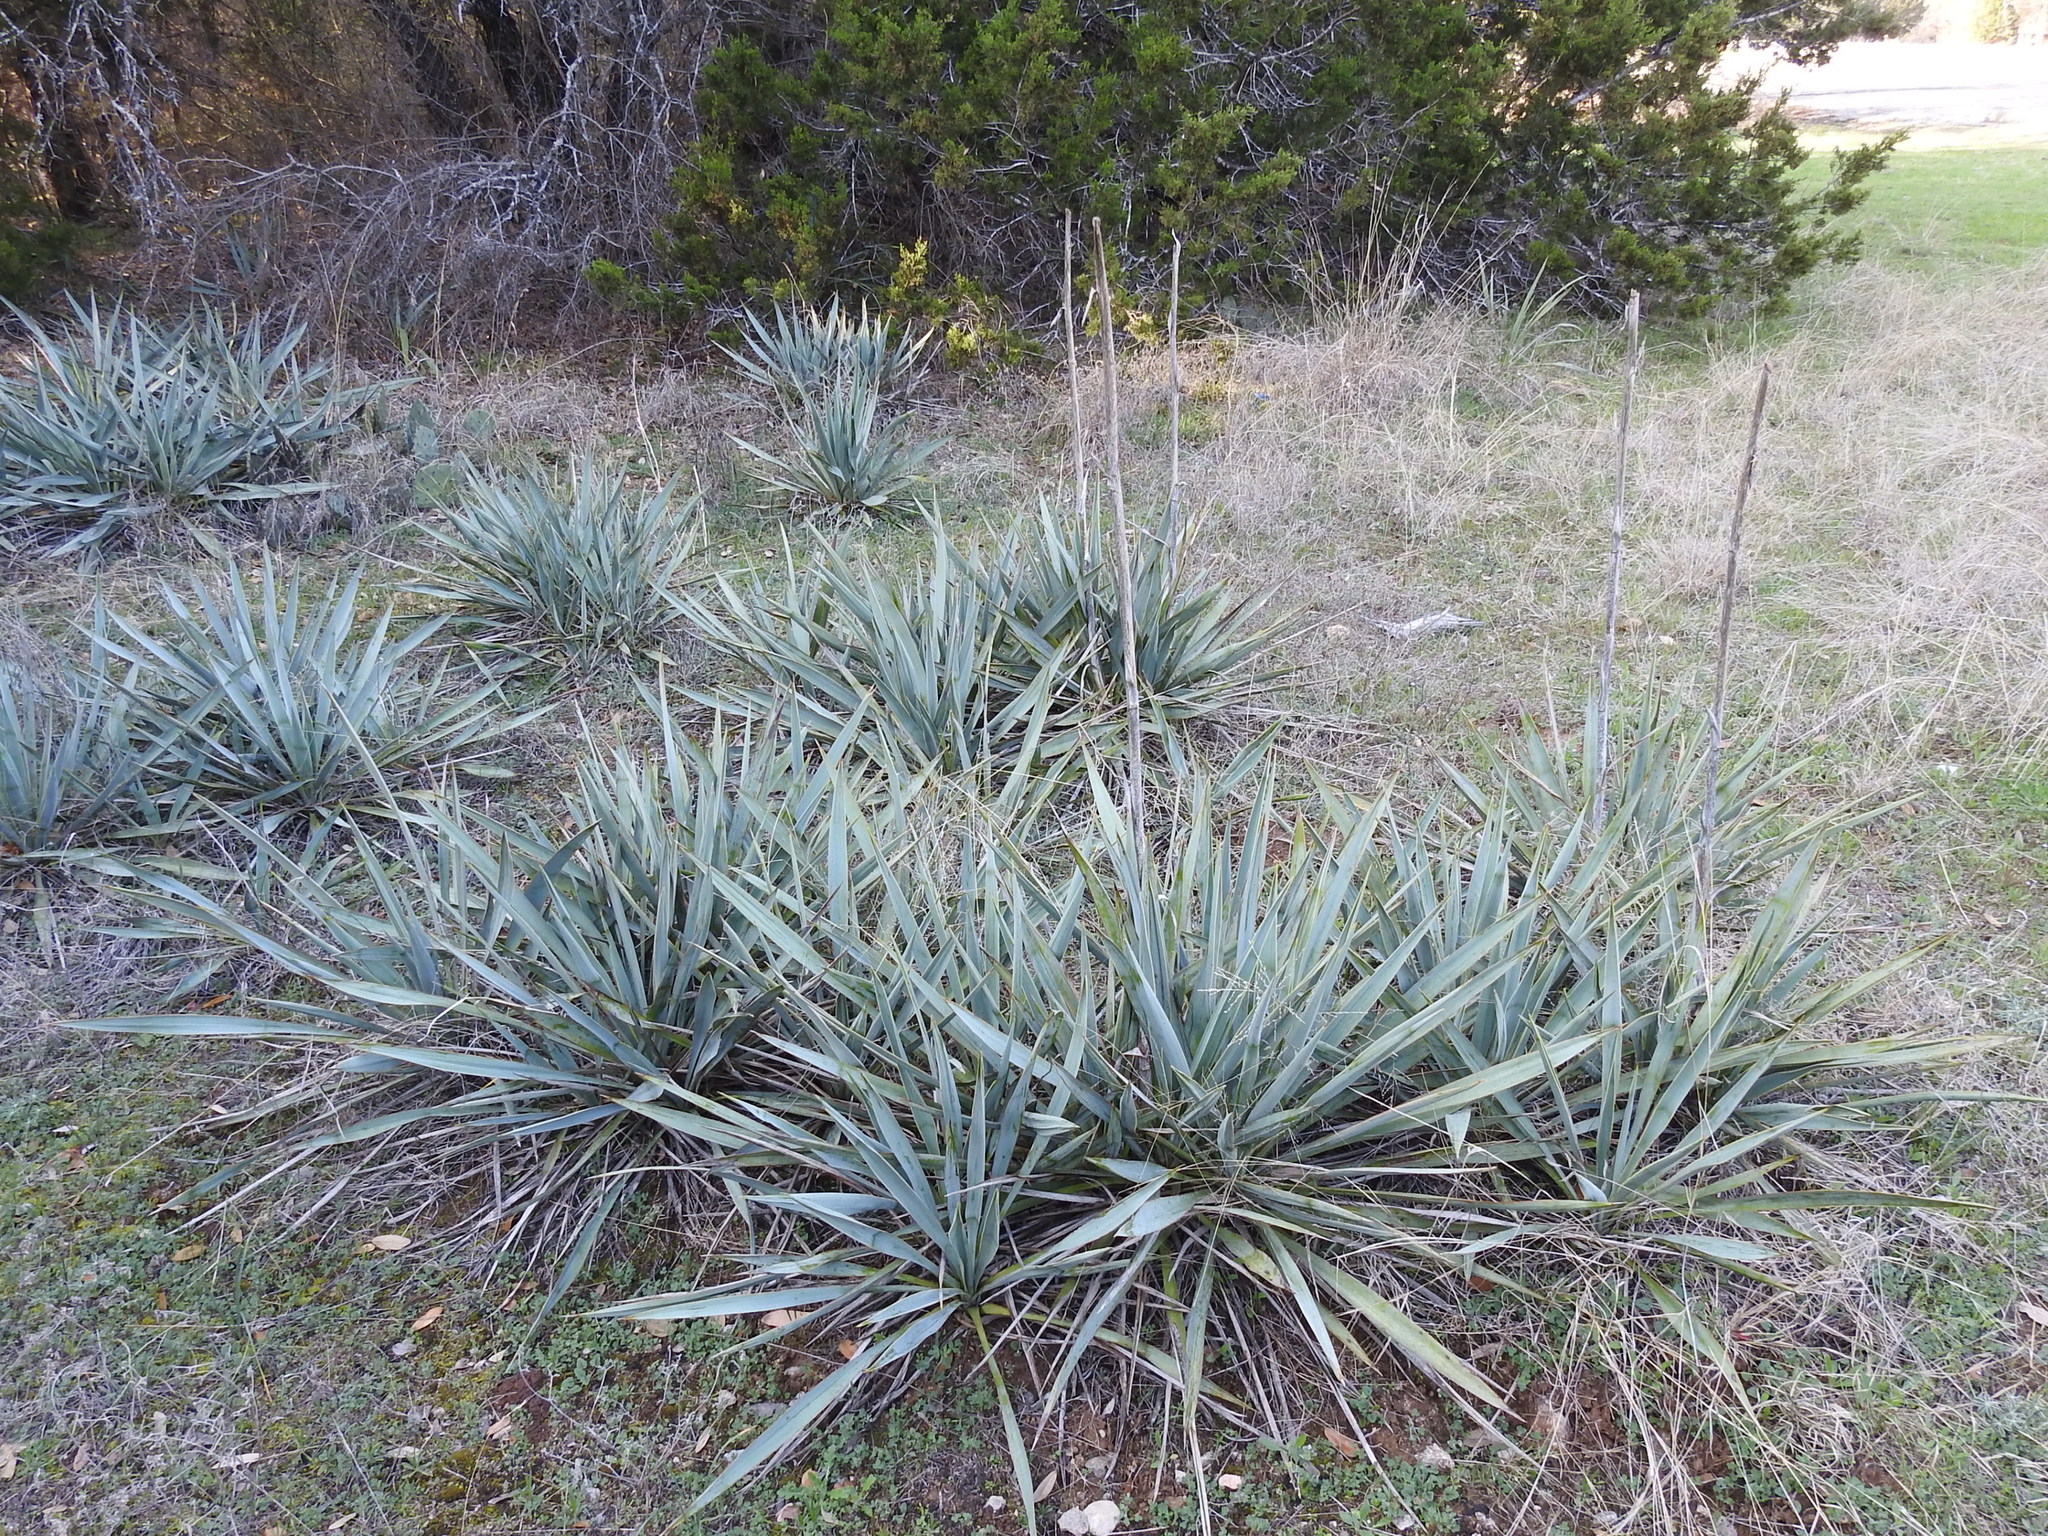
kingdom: Plantae
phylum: Tracheophyta
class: Liliopsida
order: Asparagales
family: Asparagaceae
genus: Yucca
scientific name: Yucca pallida
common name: Pale leaf yucca
